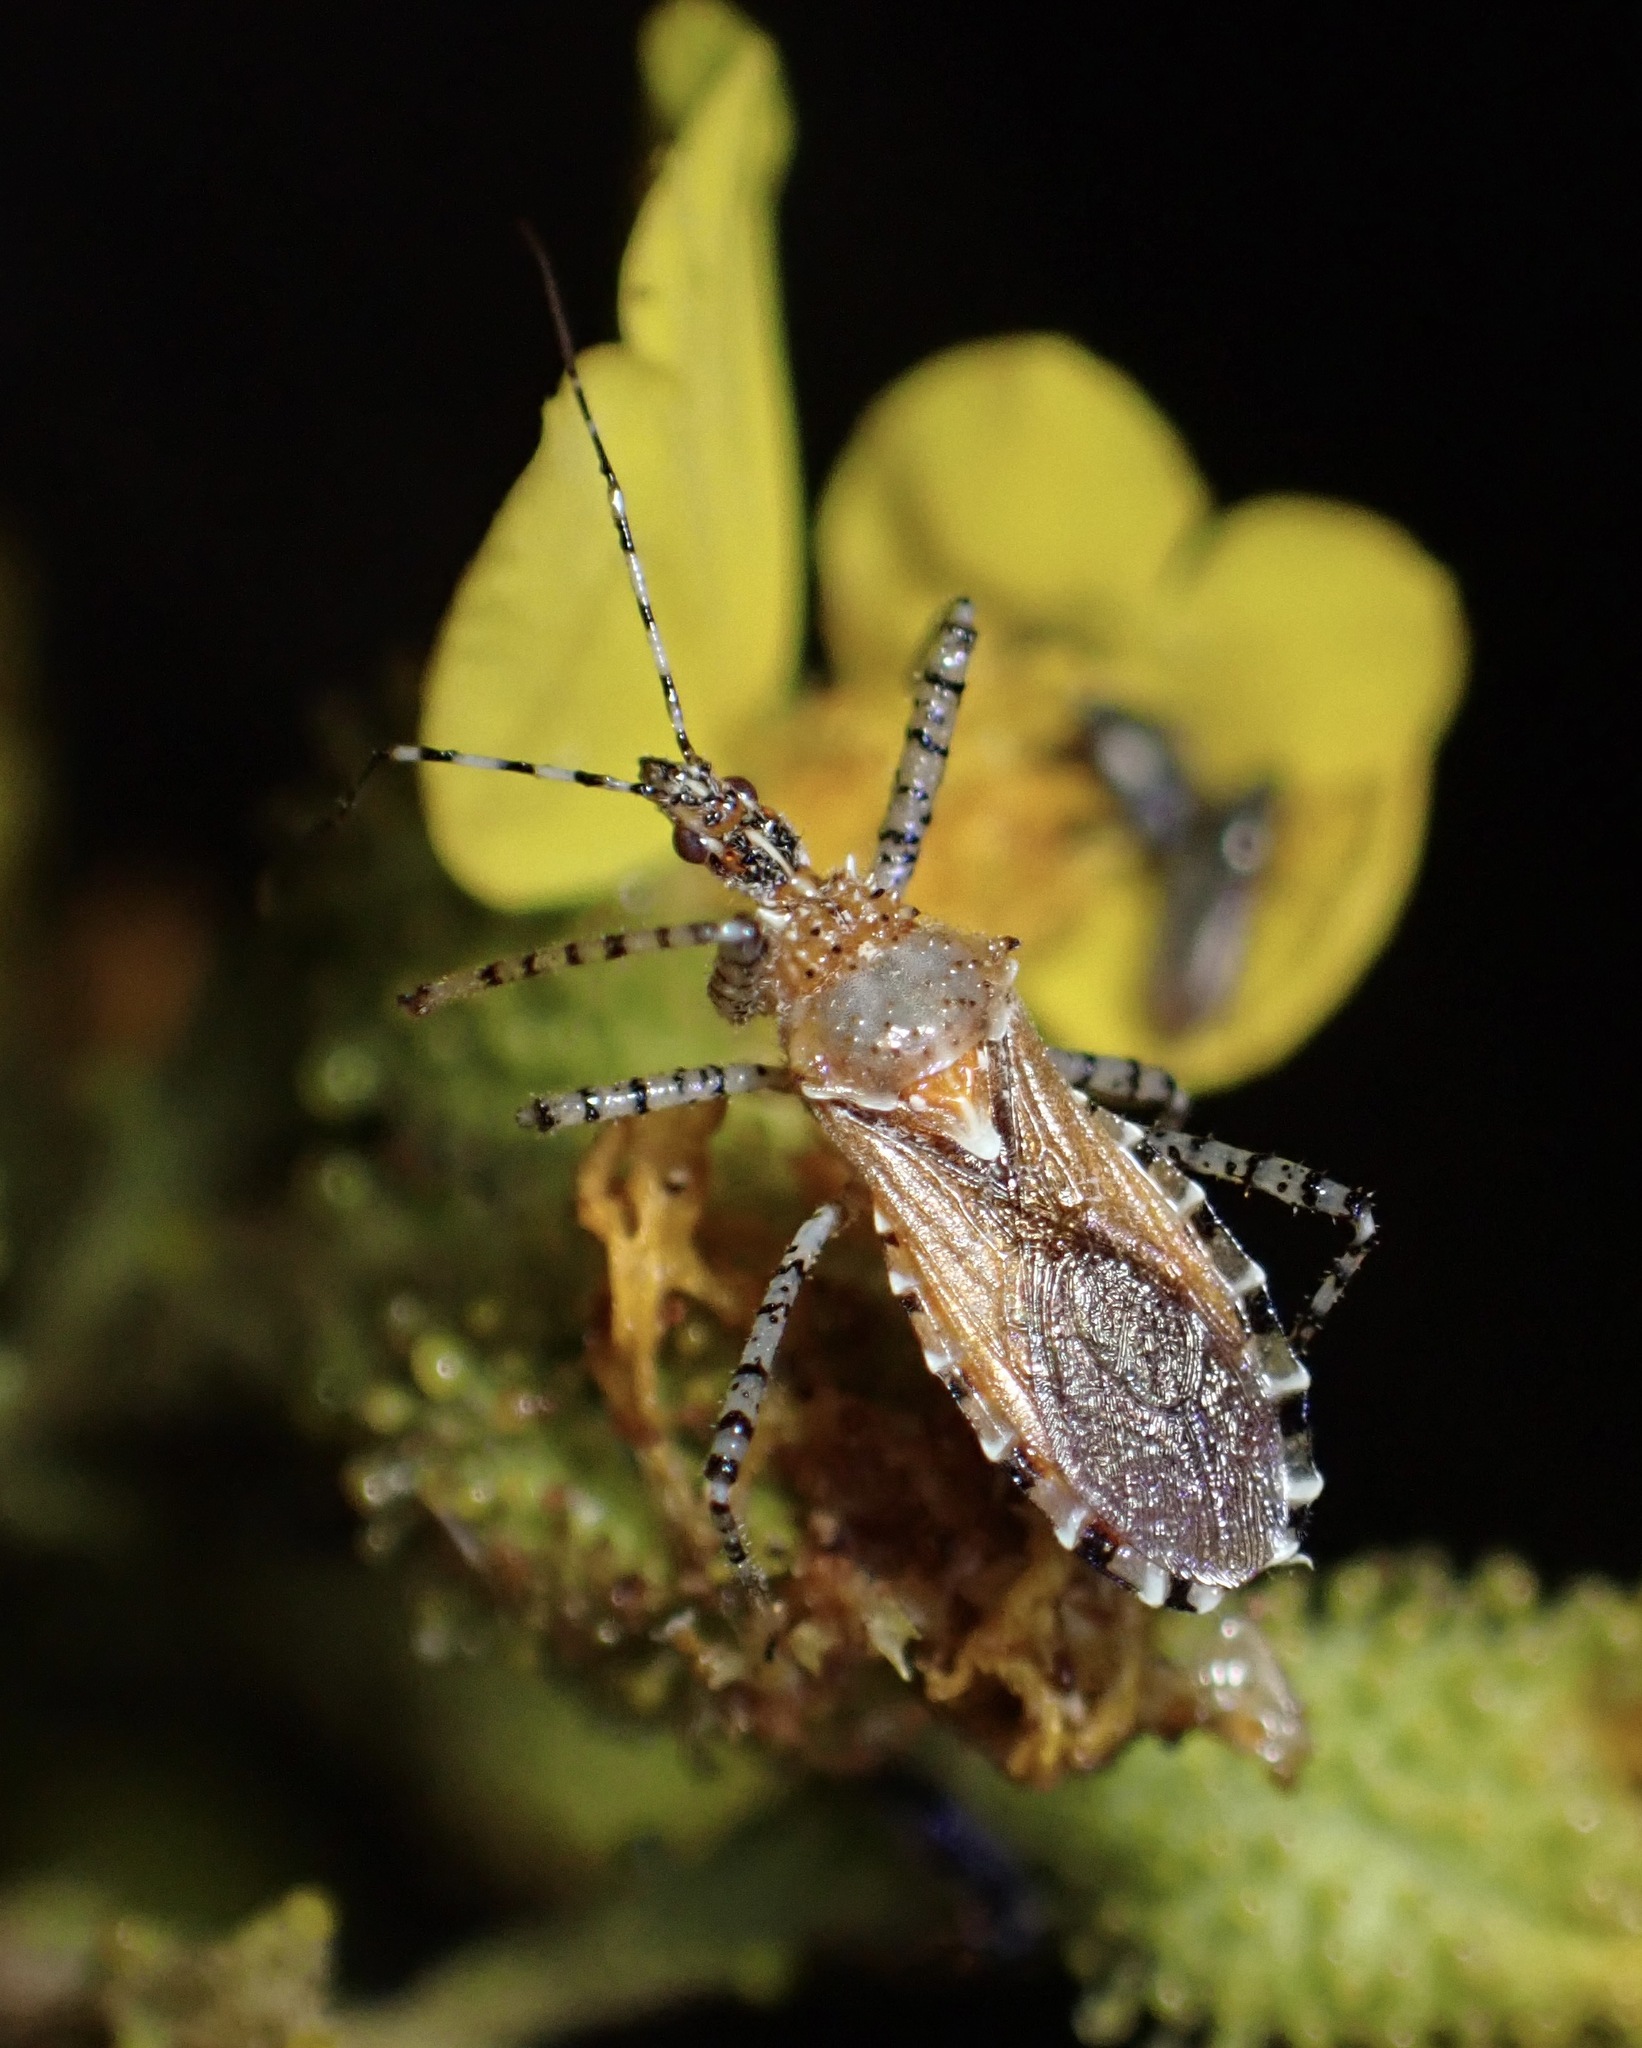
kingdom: Animalia
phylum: Arthropoda
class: Insecta
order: Hemiptera
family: Reduviidae
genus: Pselliopus
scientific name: Pselliopus spinicollis
